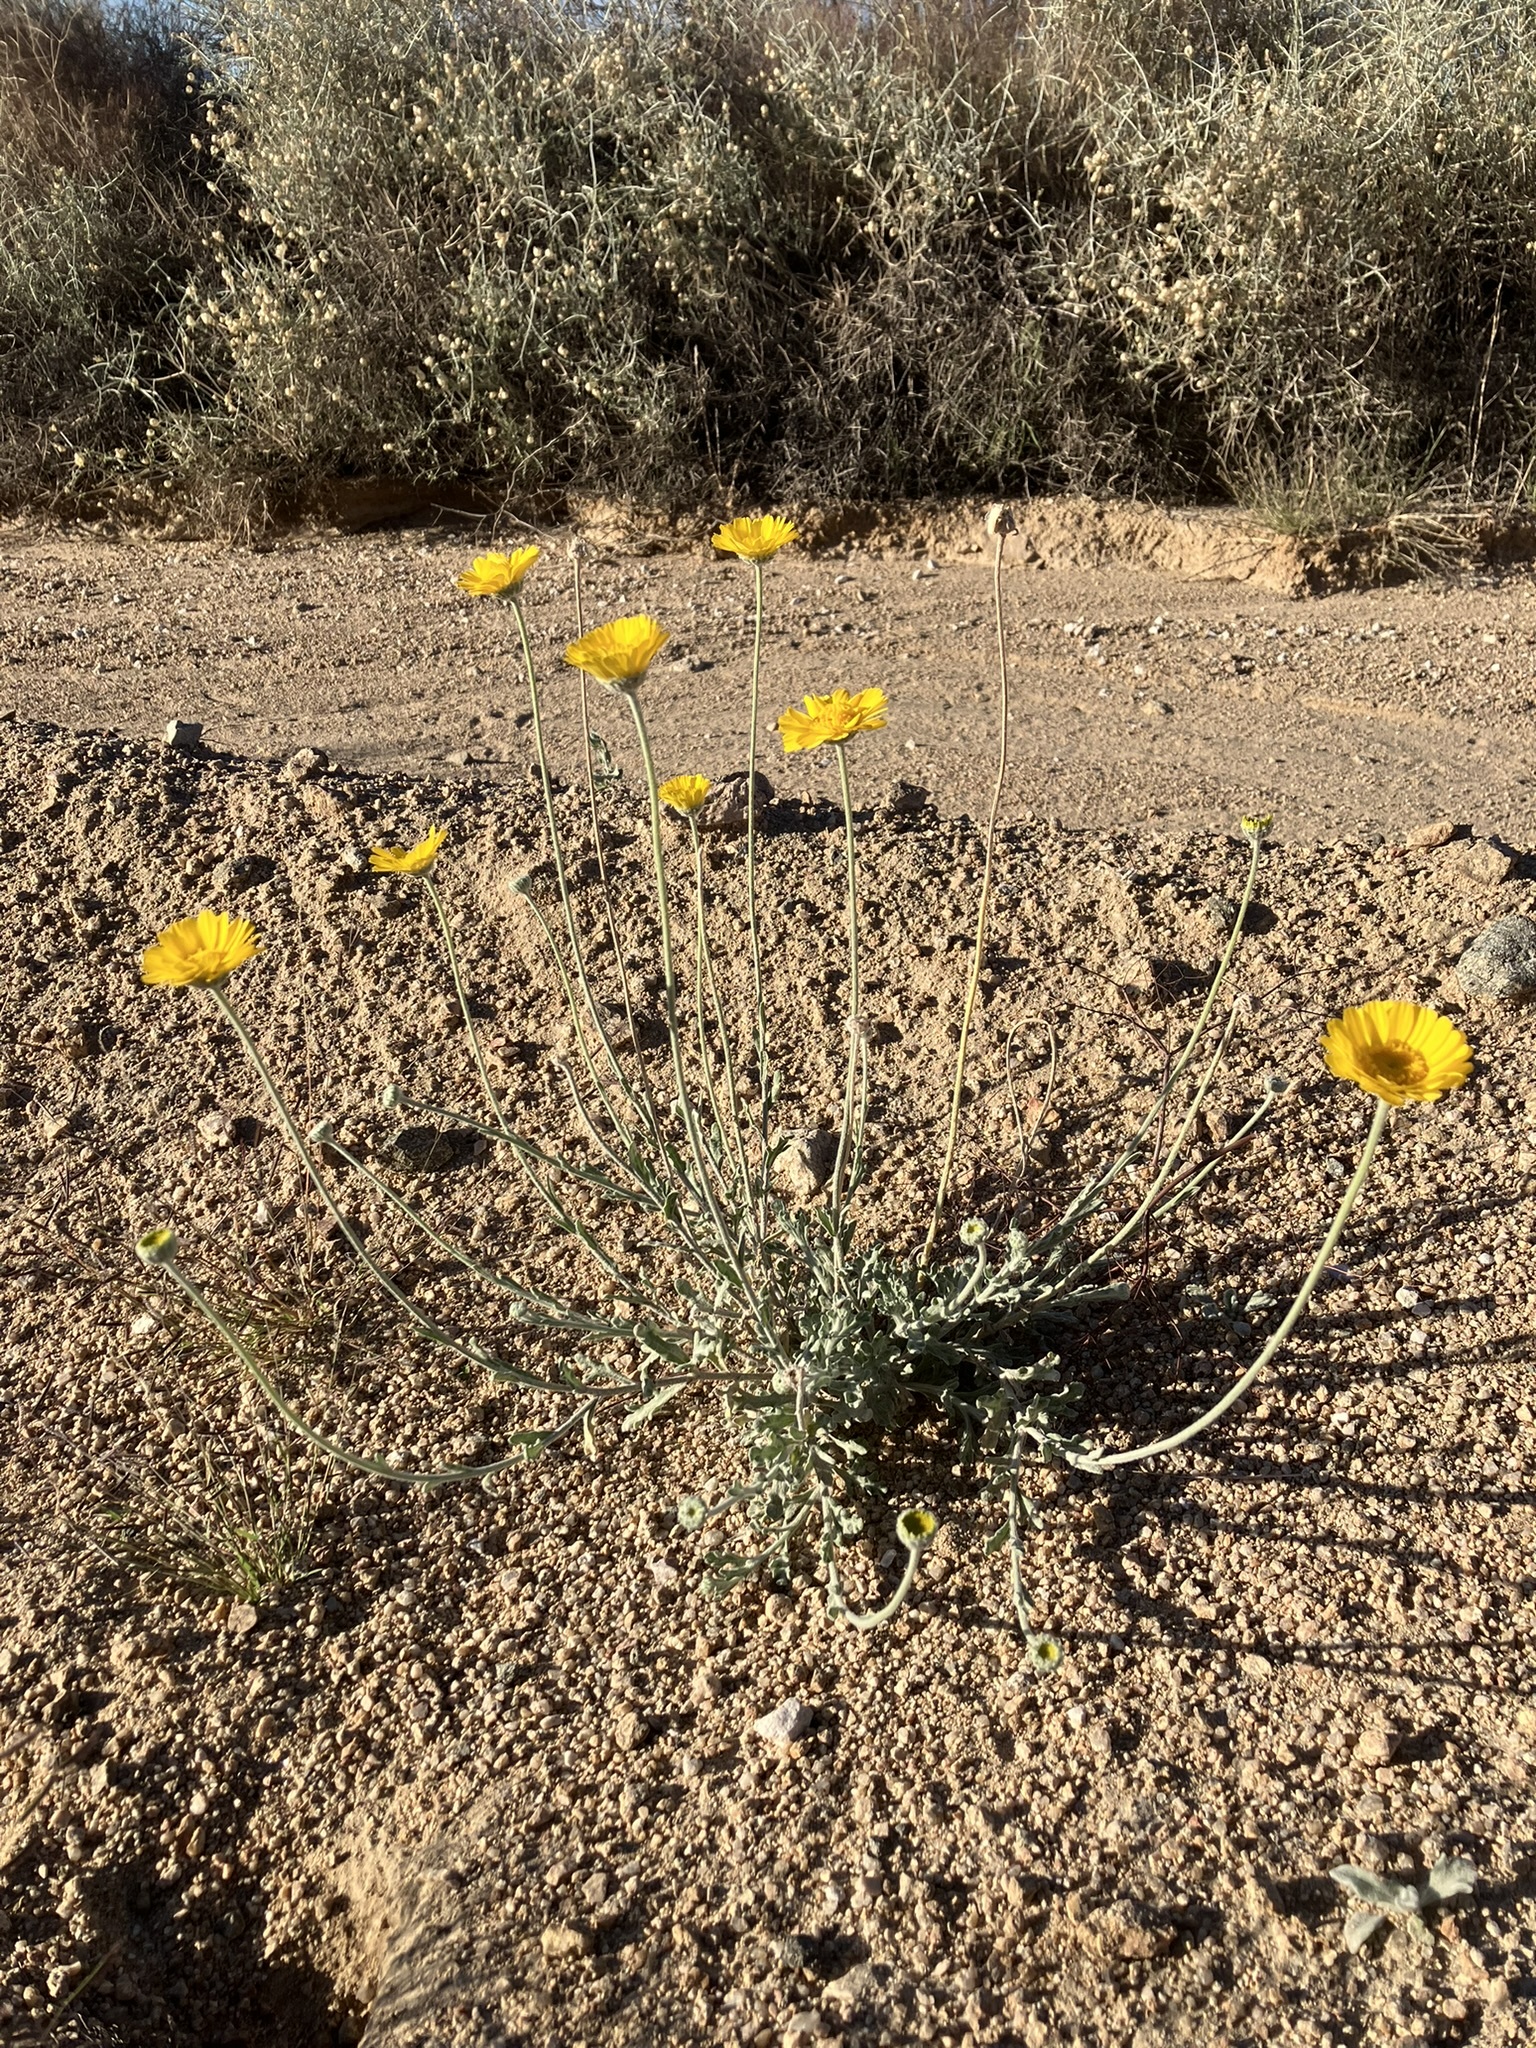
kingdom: Plantae
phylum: Tracheophyta
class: Magnoliopsida
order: Asterales
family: Asteraceae
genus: Baileya
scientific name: Baileya multiradiata
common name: Desert-marigold
